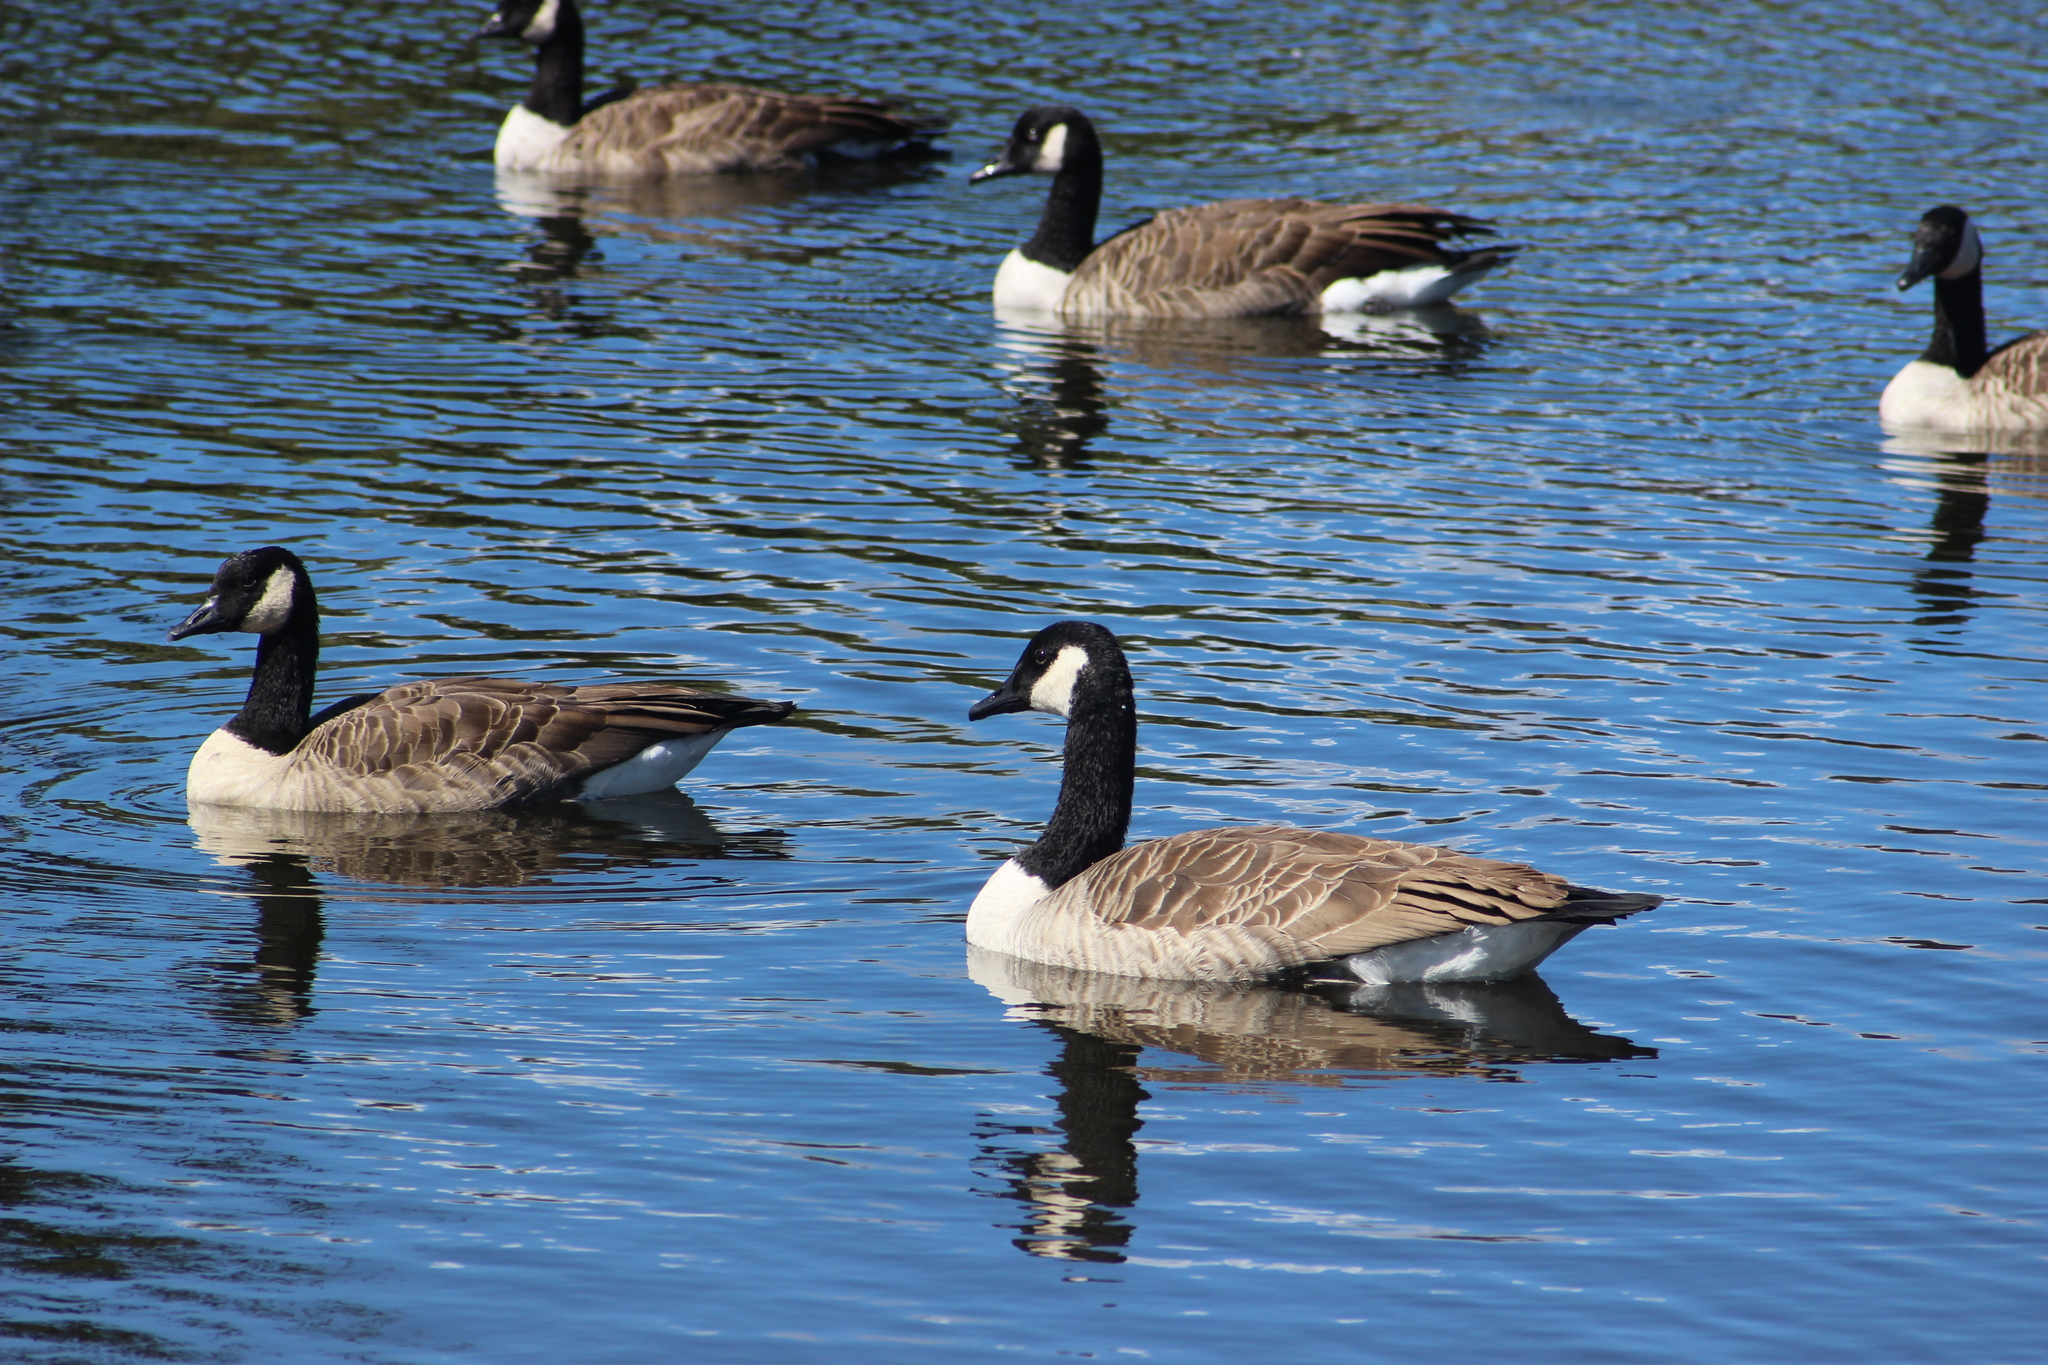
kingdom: Animalia
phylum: Chordata
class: Aves
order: Anseriformes
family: Anatidae
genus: Branta
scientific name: Branta canadensis
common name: Canada goose
